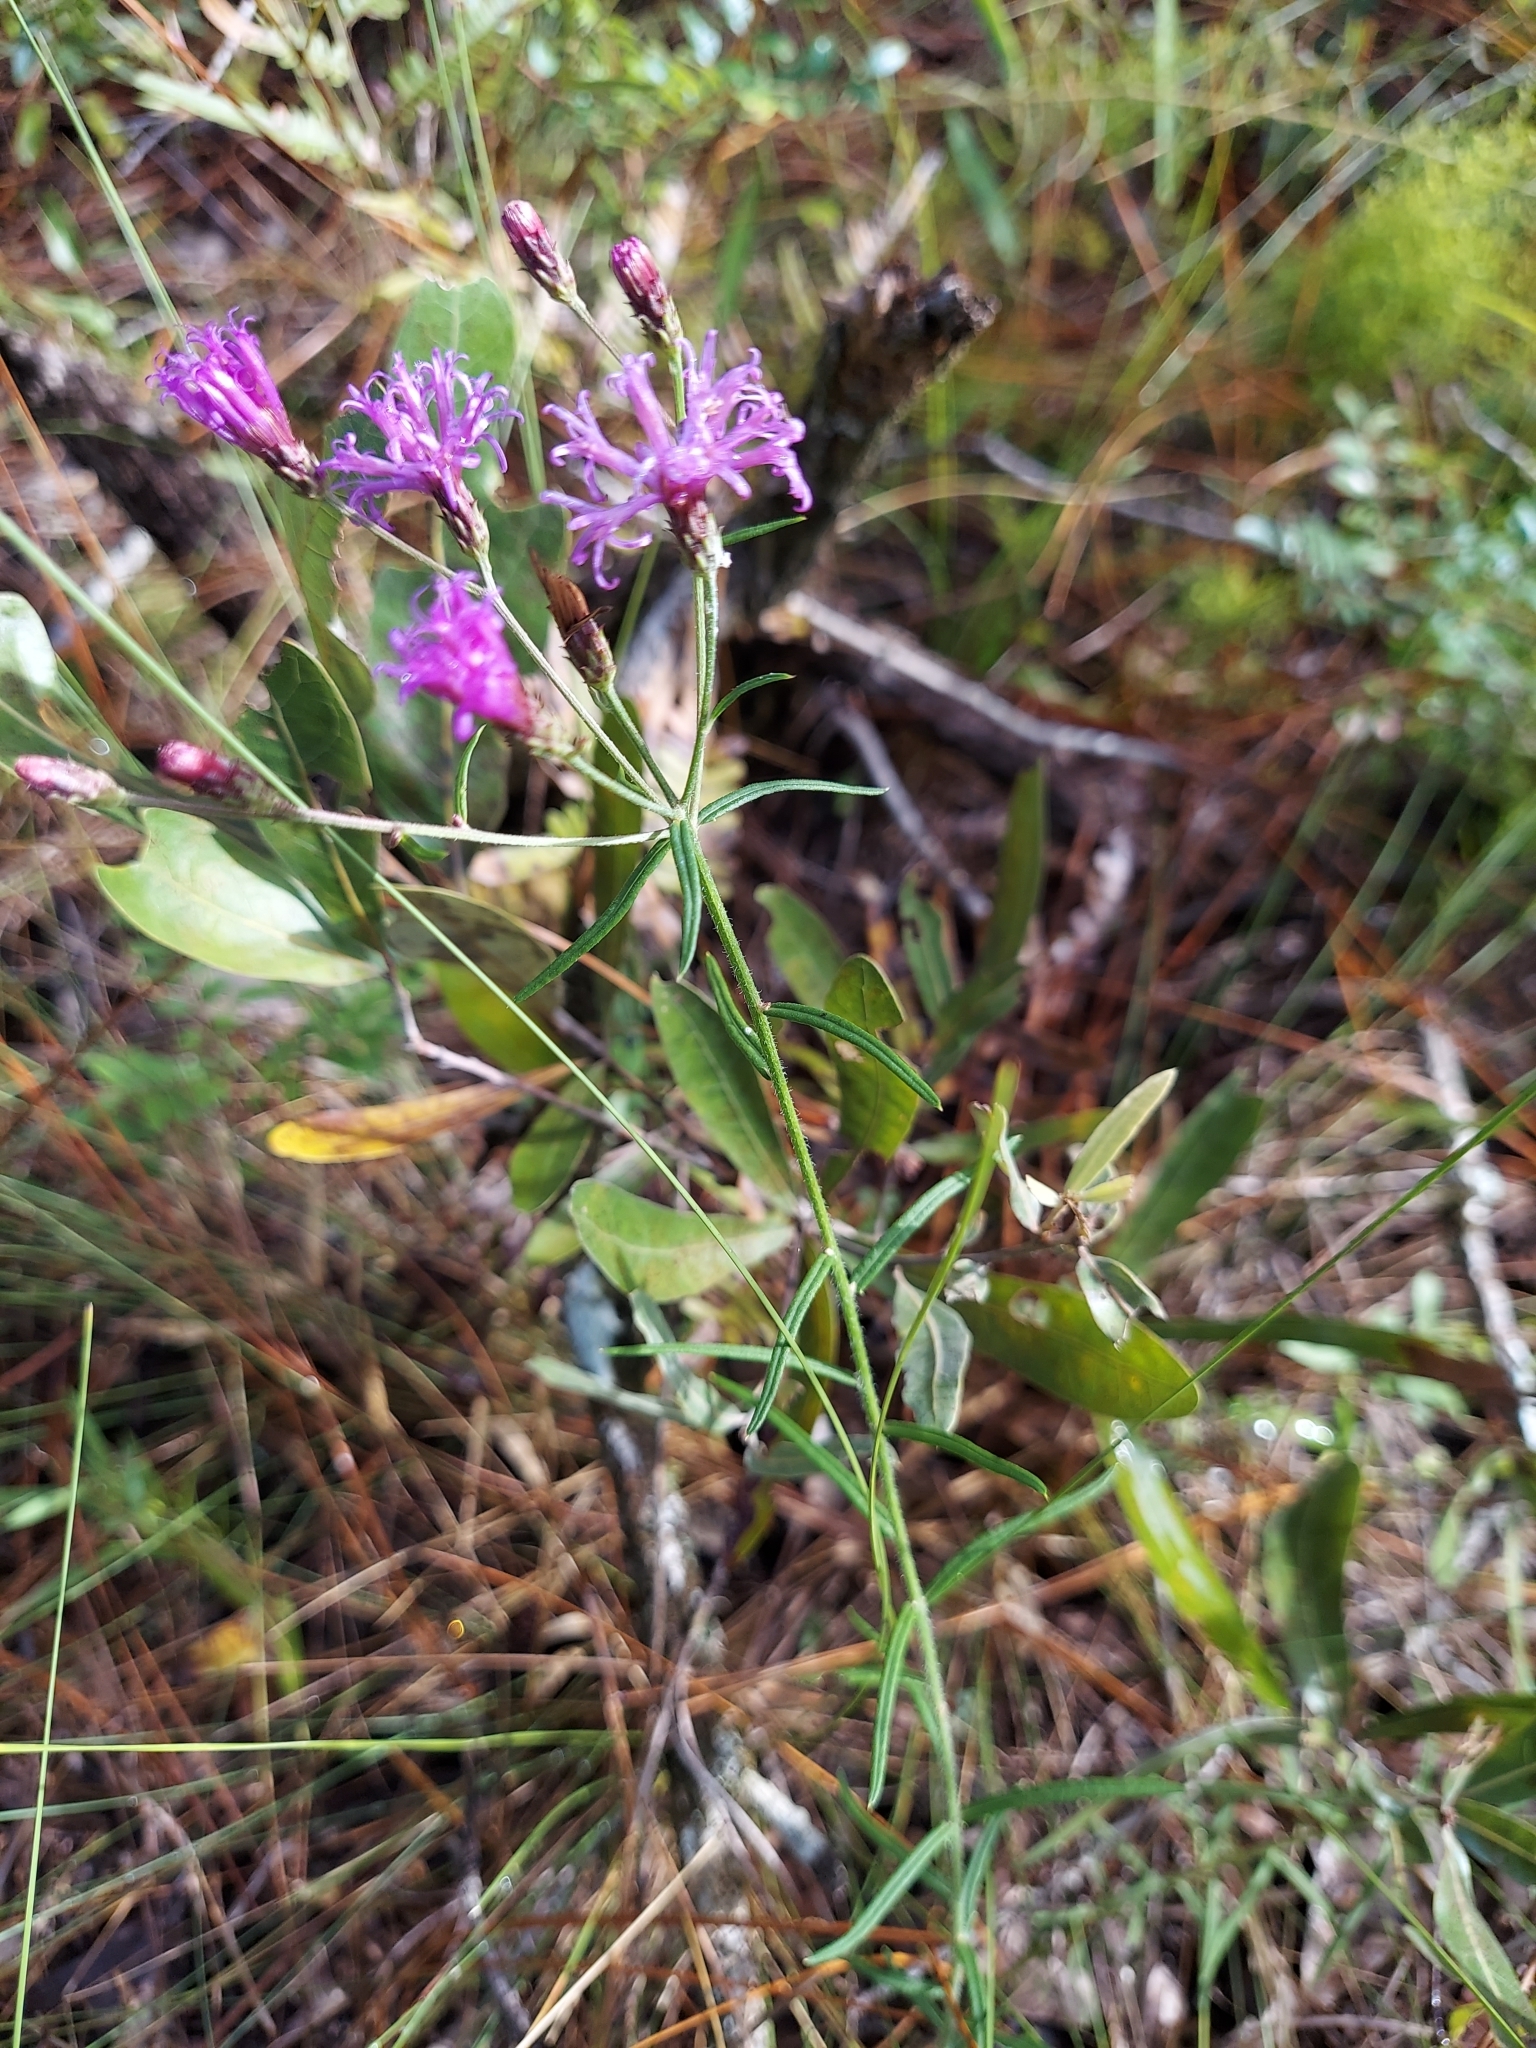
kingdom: Plantae
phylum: Tracheophyta
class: Magnoliopsida
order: Asterales
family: Asteraceae
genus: Vernonia
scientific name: Vernonia angustifolia
